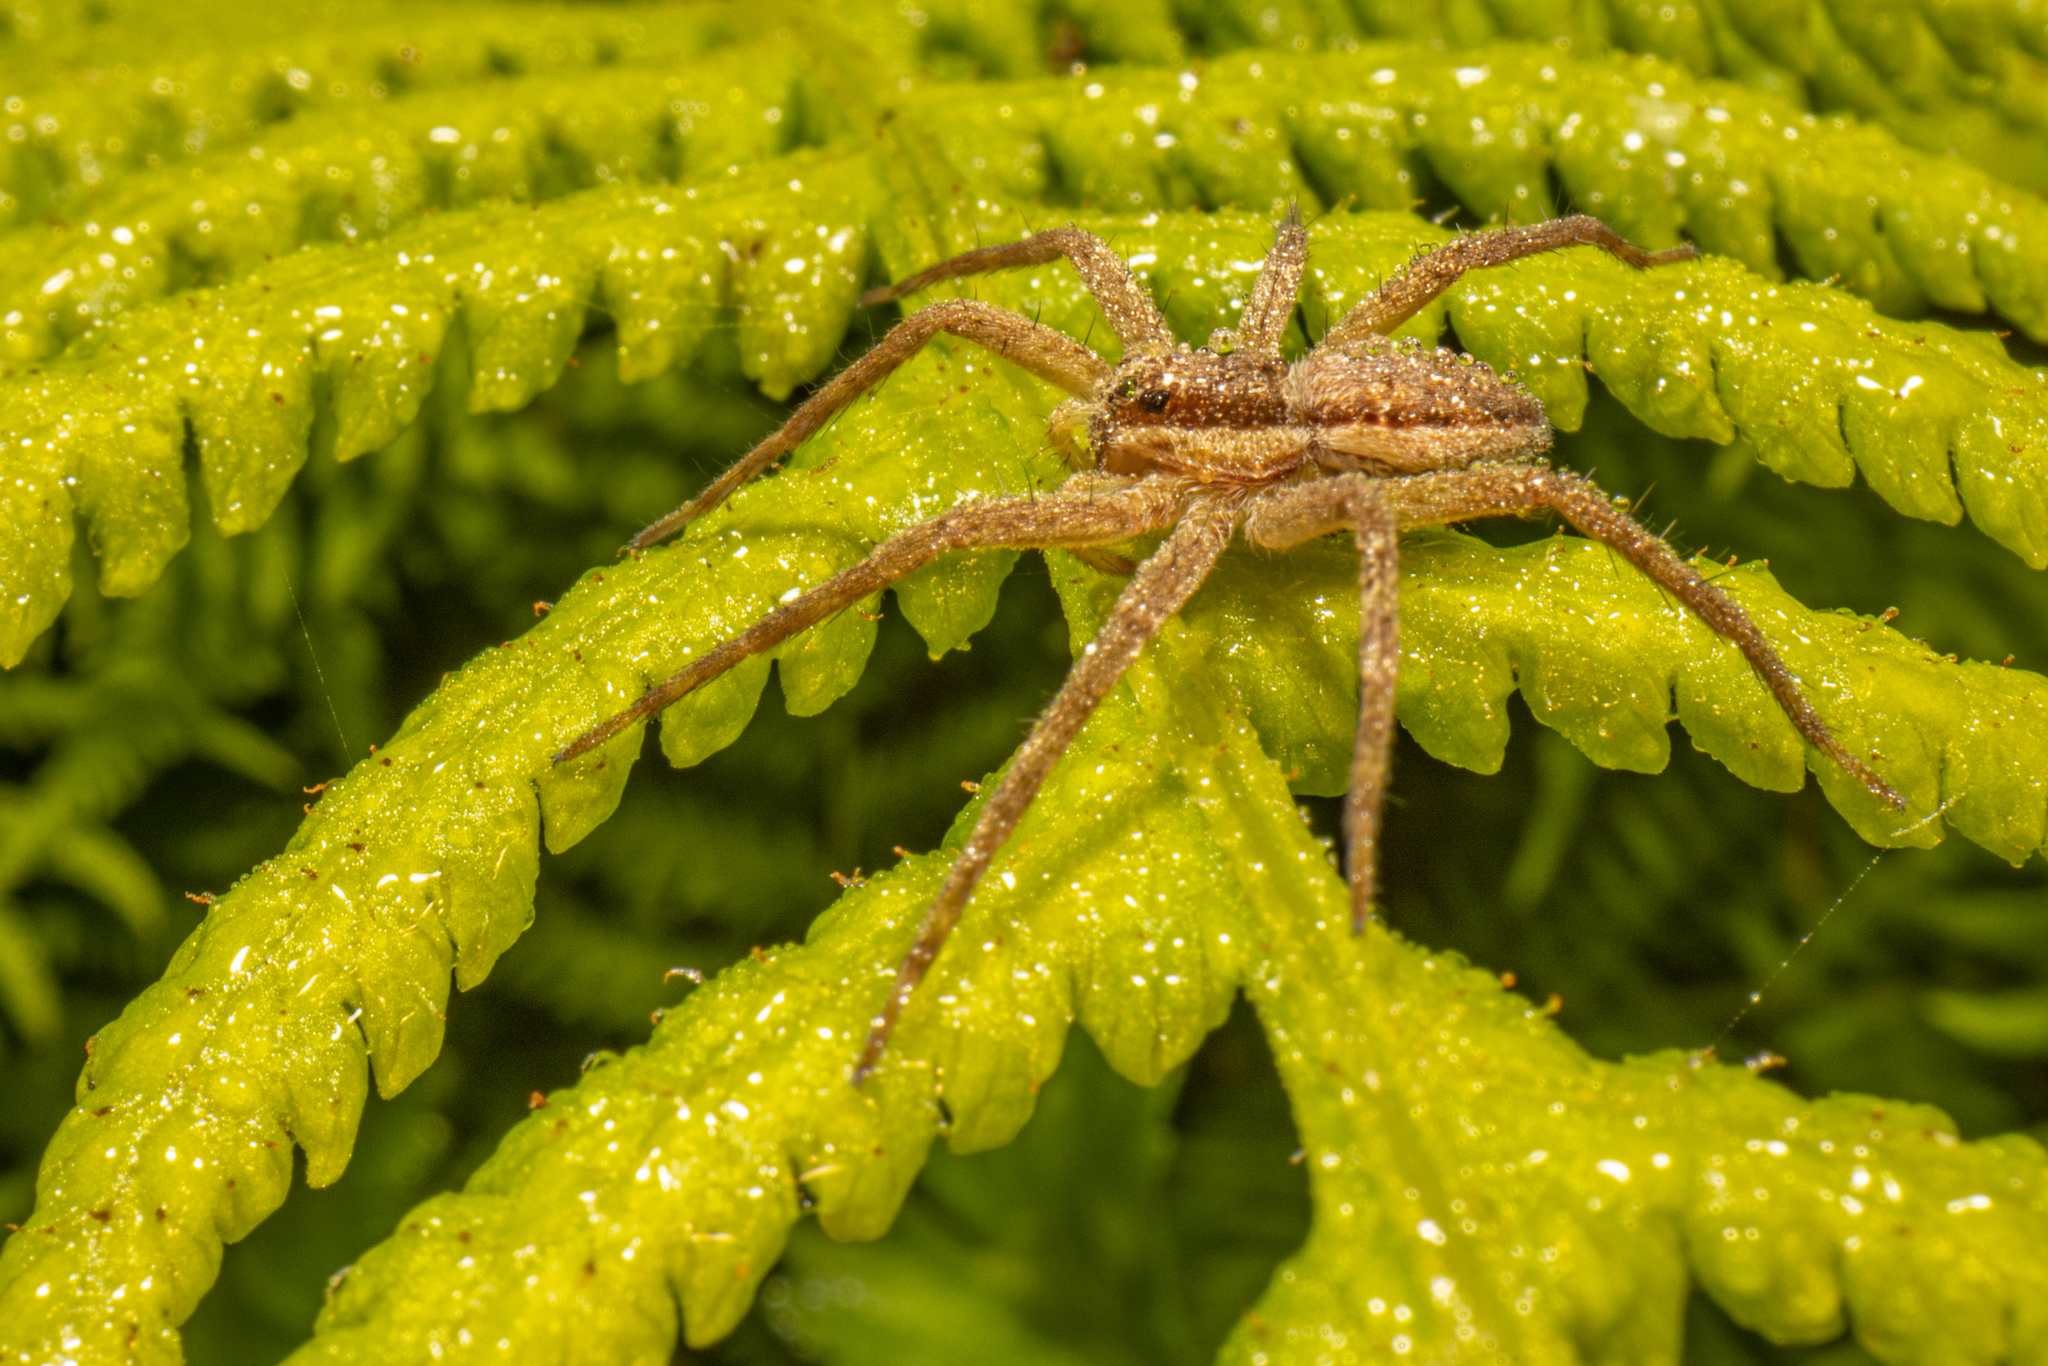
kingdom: Animalia
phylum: Arthropoda
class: Arachnida
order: Araneae
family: Pisauridae
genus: Dolomedes
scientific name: Dolomedes minor
